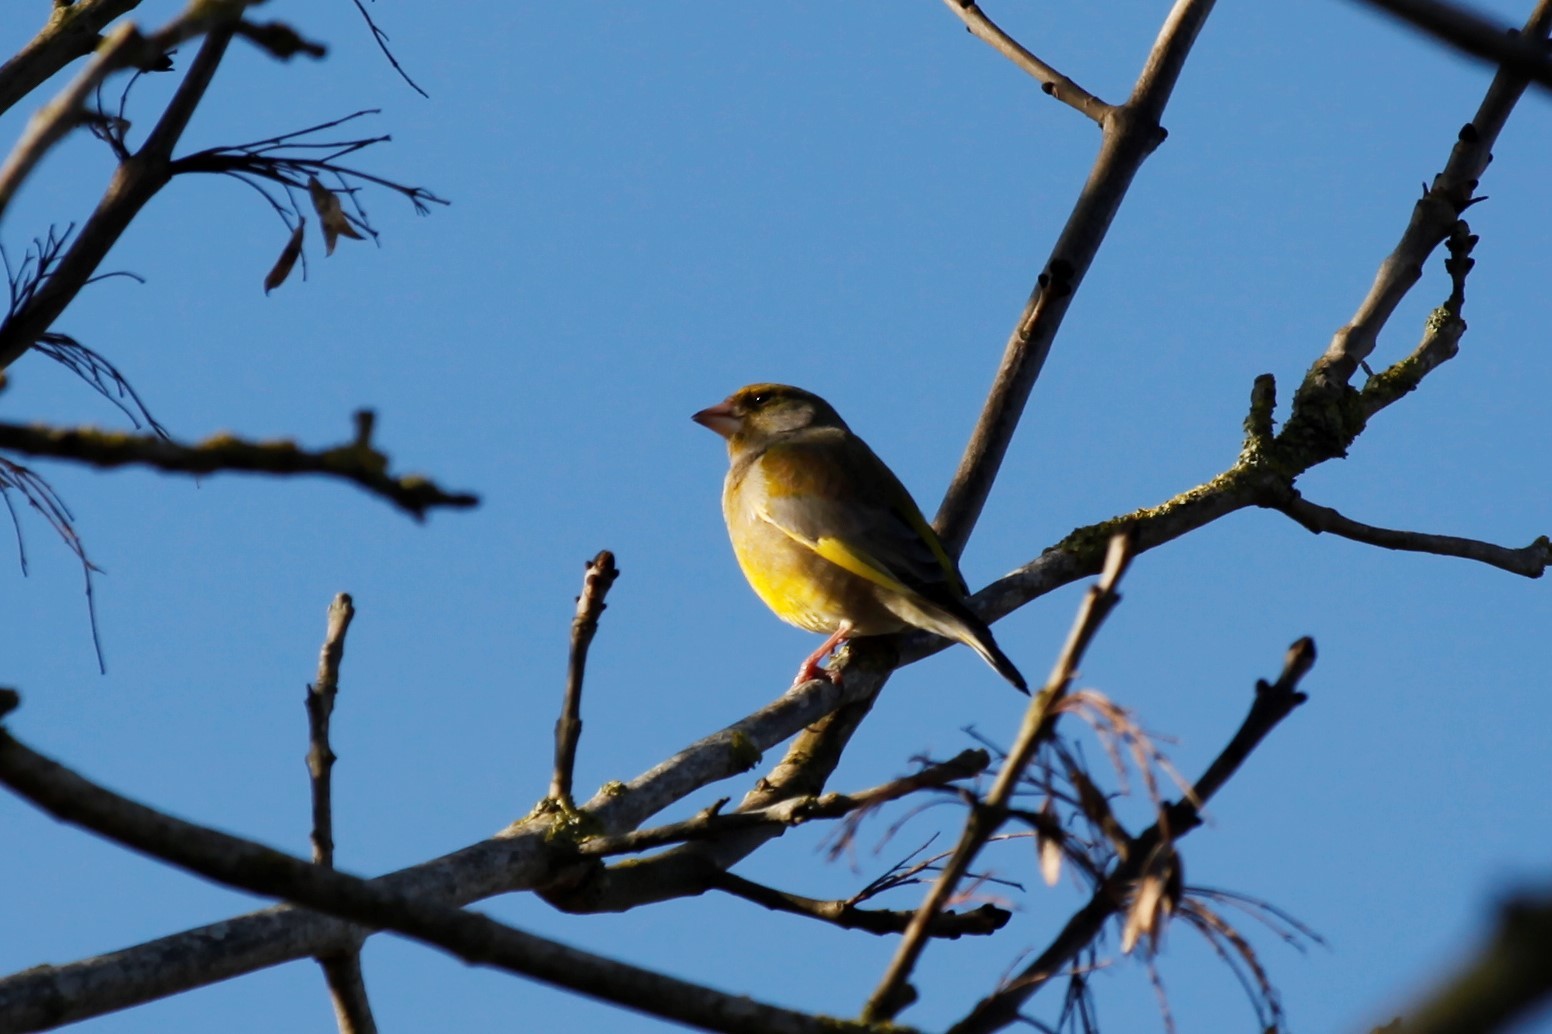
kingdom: Plantae
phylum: Tracheophyta
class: Liliopsida
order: Poales
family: Poaceae
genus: Chloris
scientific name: Chloris chloris
